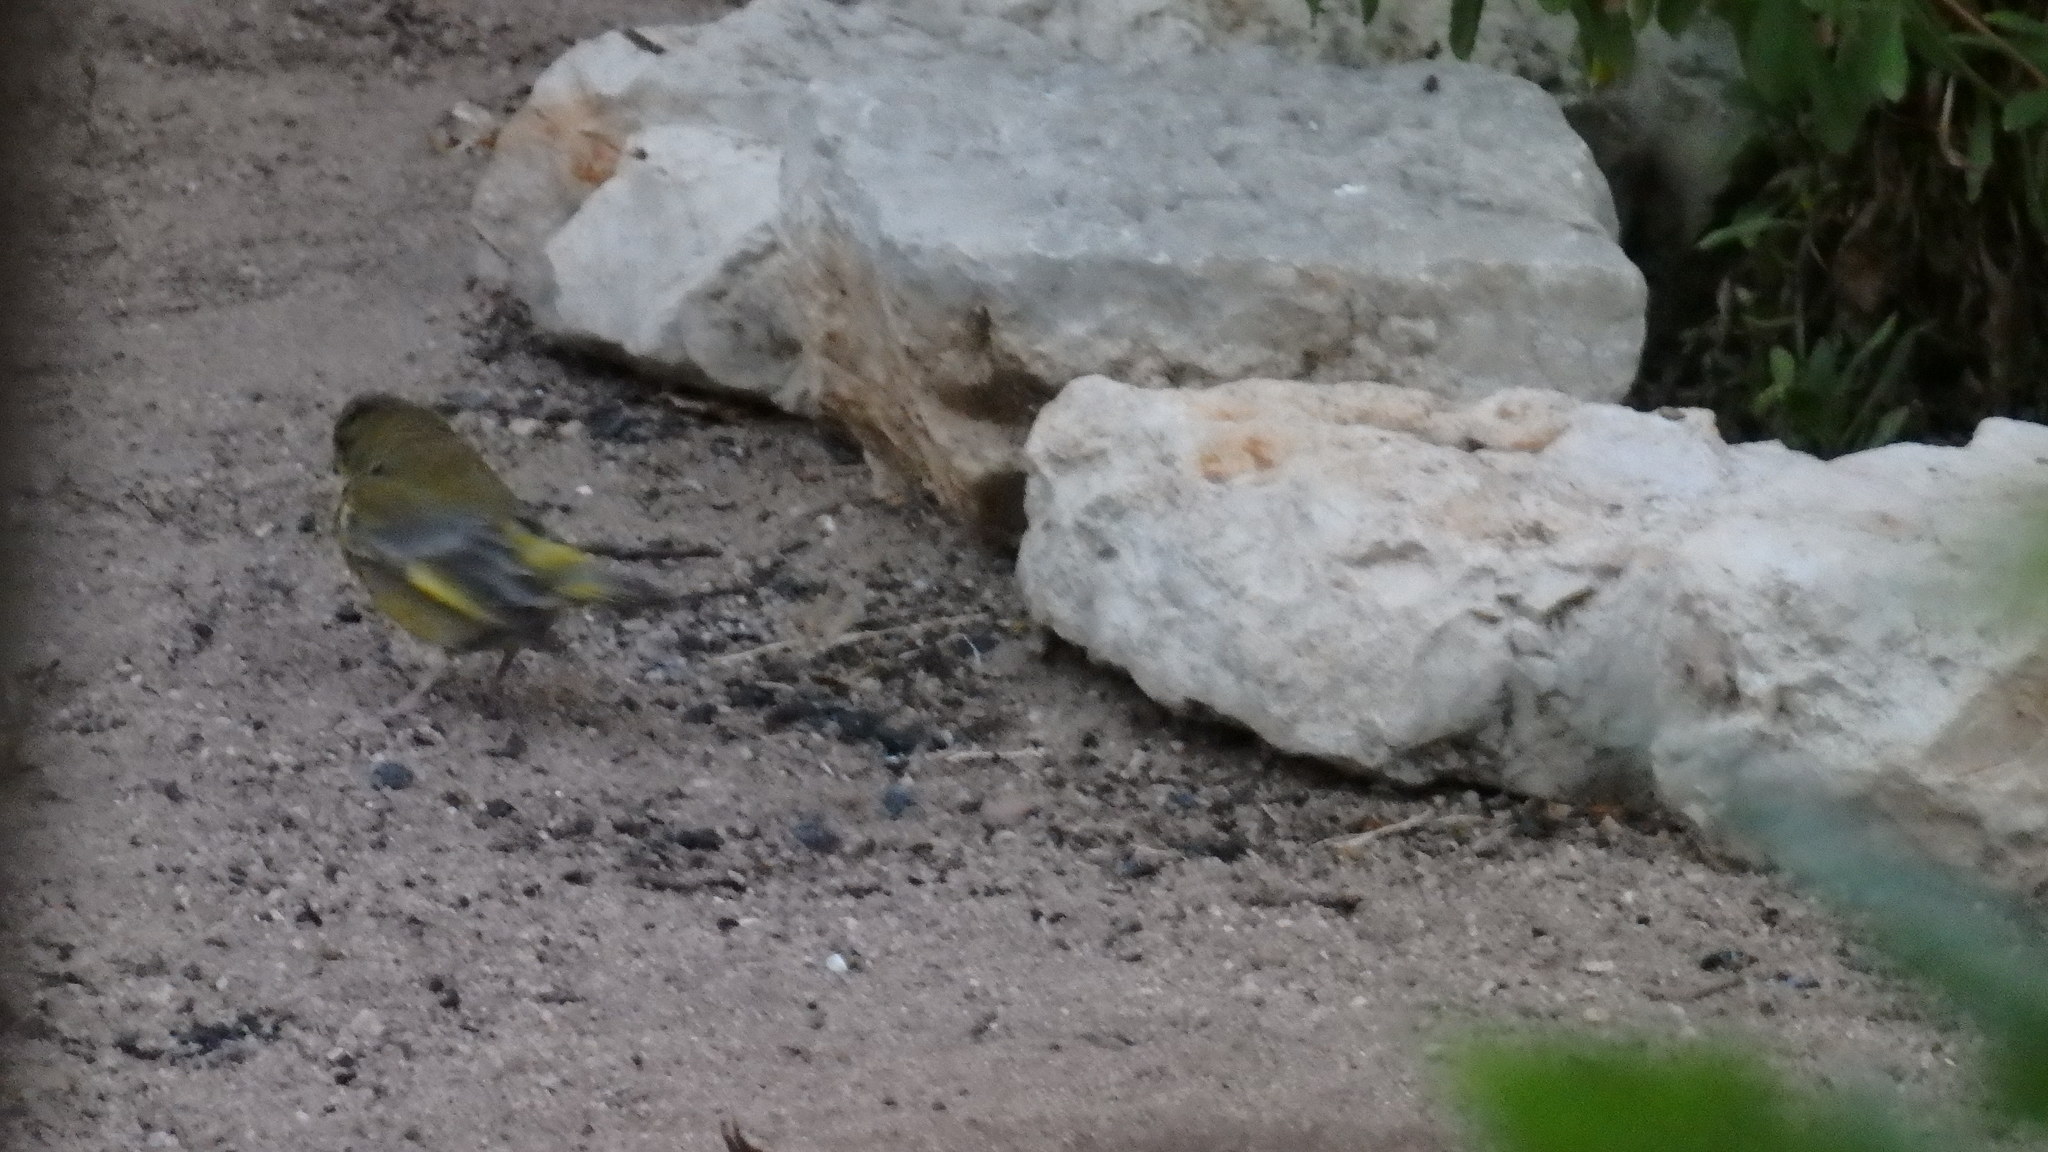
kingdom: Plantae
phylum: Tracheophyta
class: Liliopsida
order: Poales
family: Poaceae
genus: Chloris
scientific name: Chloris chloris
